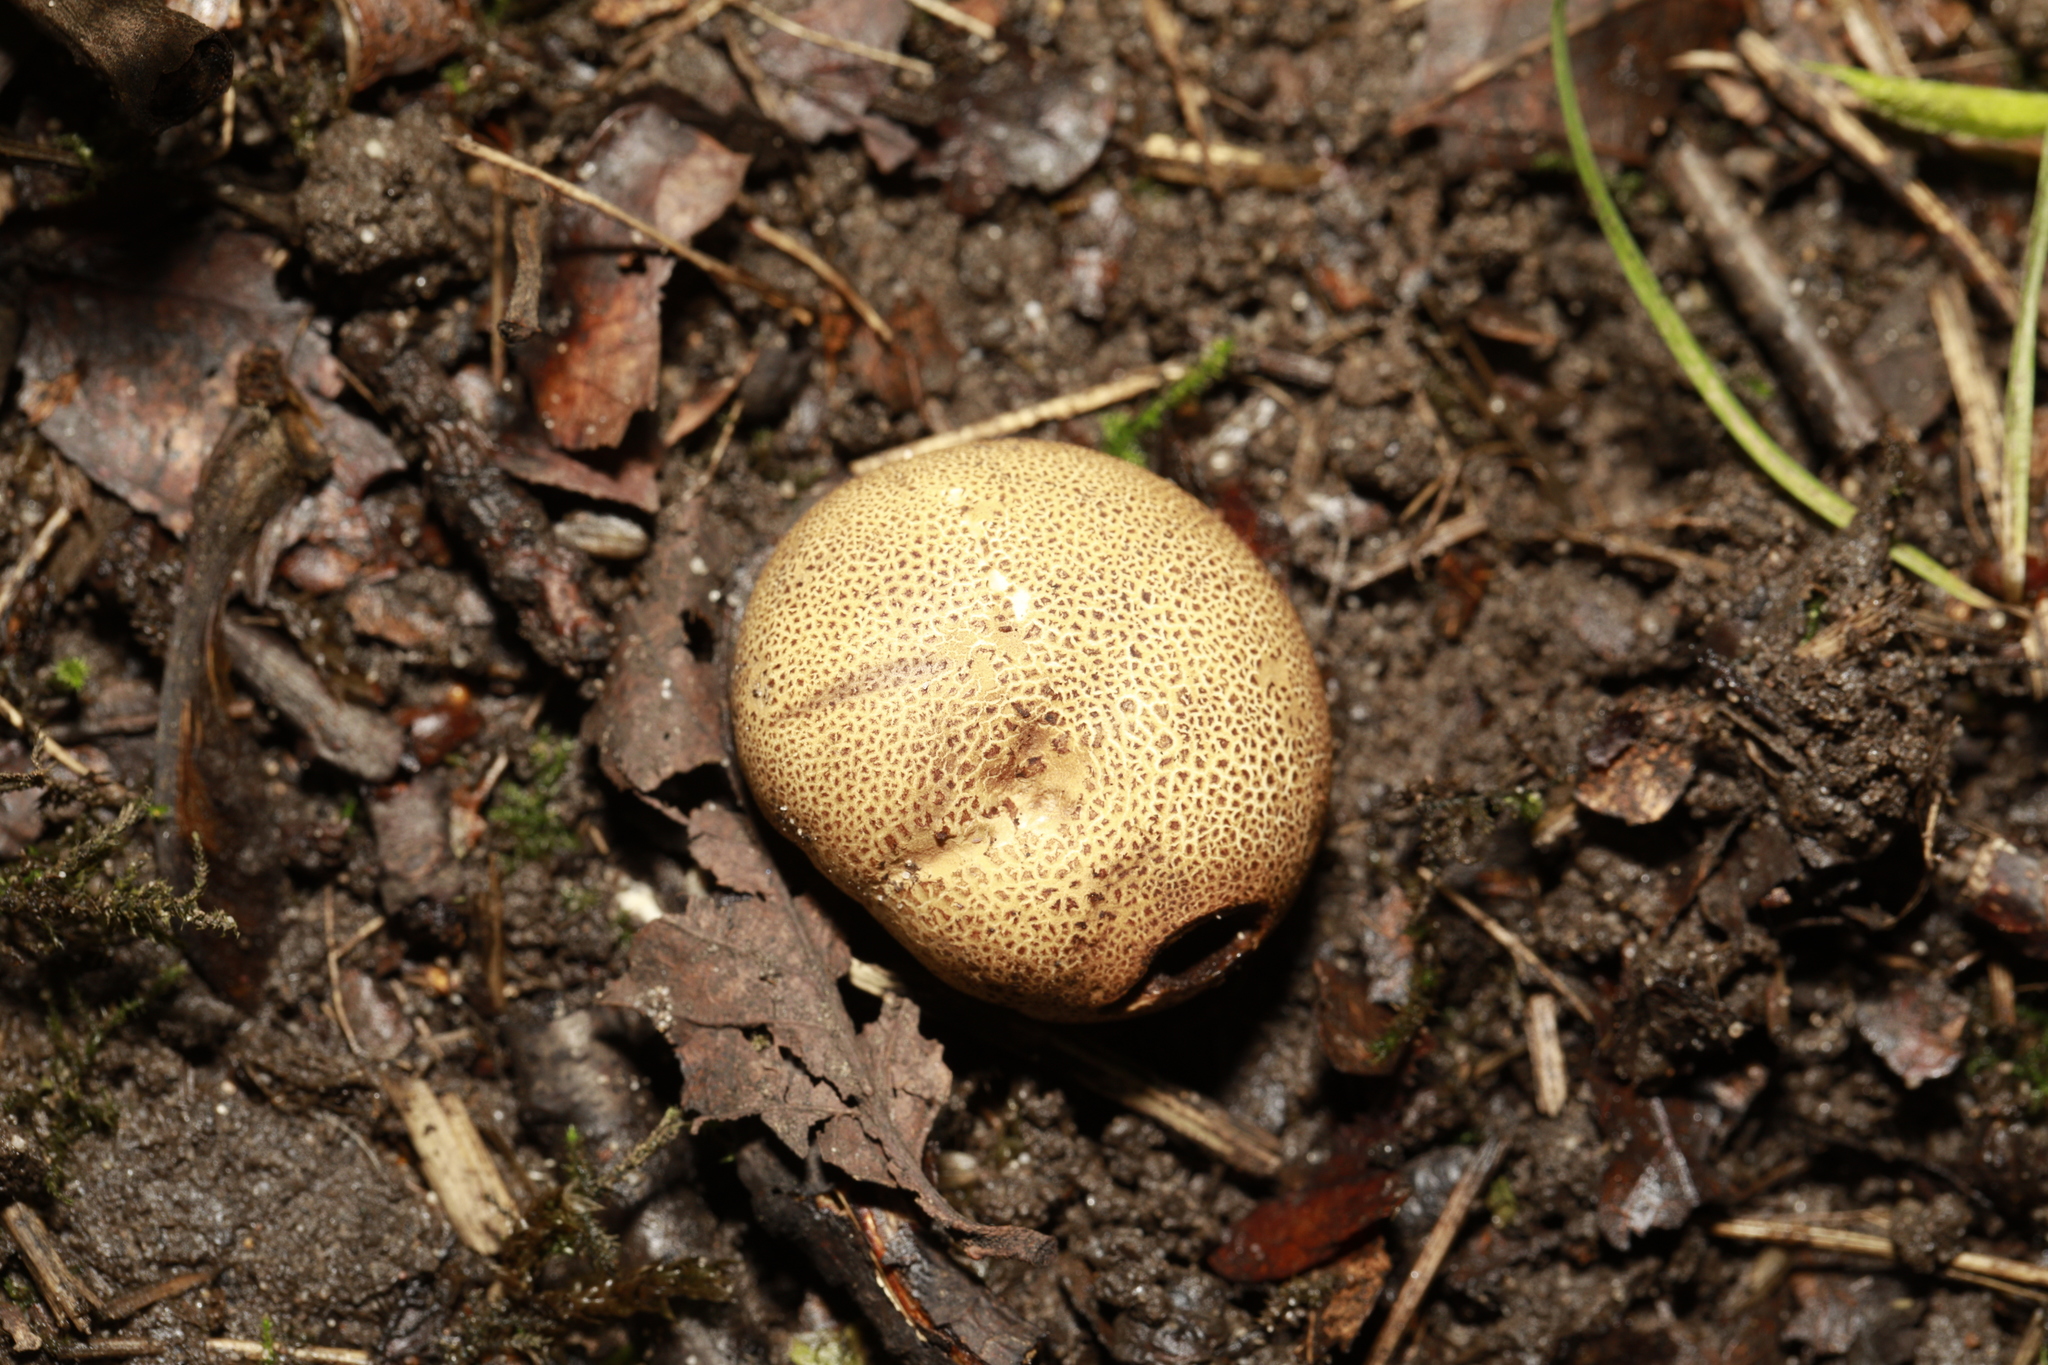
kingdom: Fungi
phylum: Basidiomycota
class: Agaricomycetes
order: Boletales
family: Sclerodermataceae
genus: Scleroderma
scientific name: Scleroderma citrinum
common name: Common earthball
